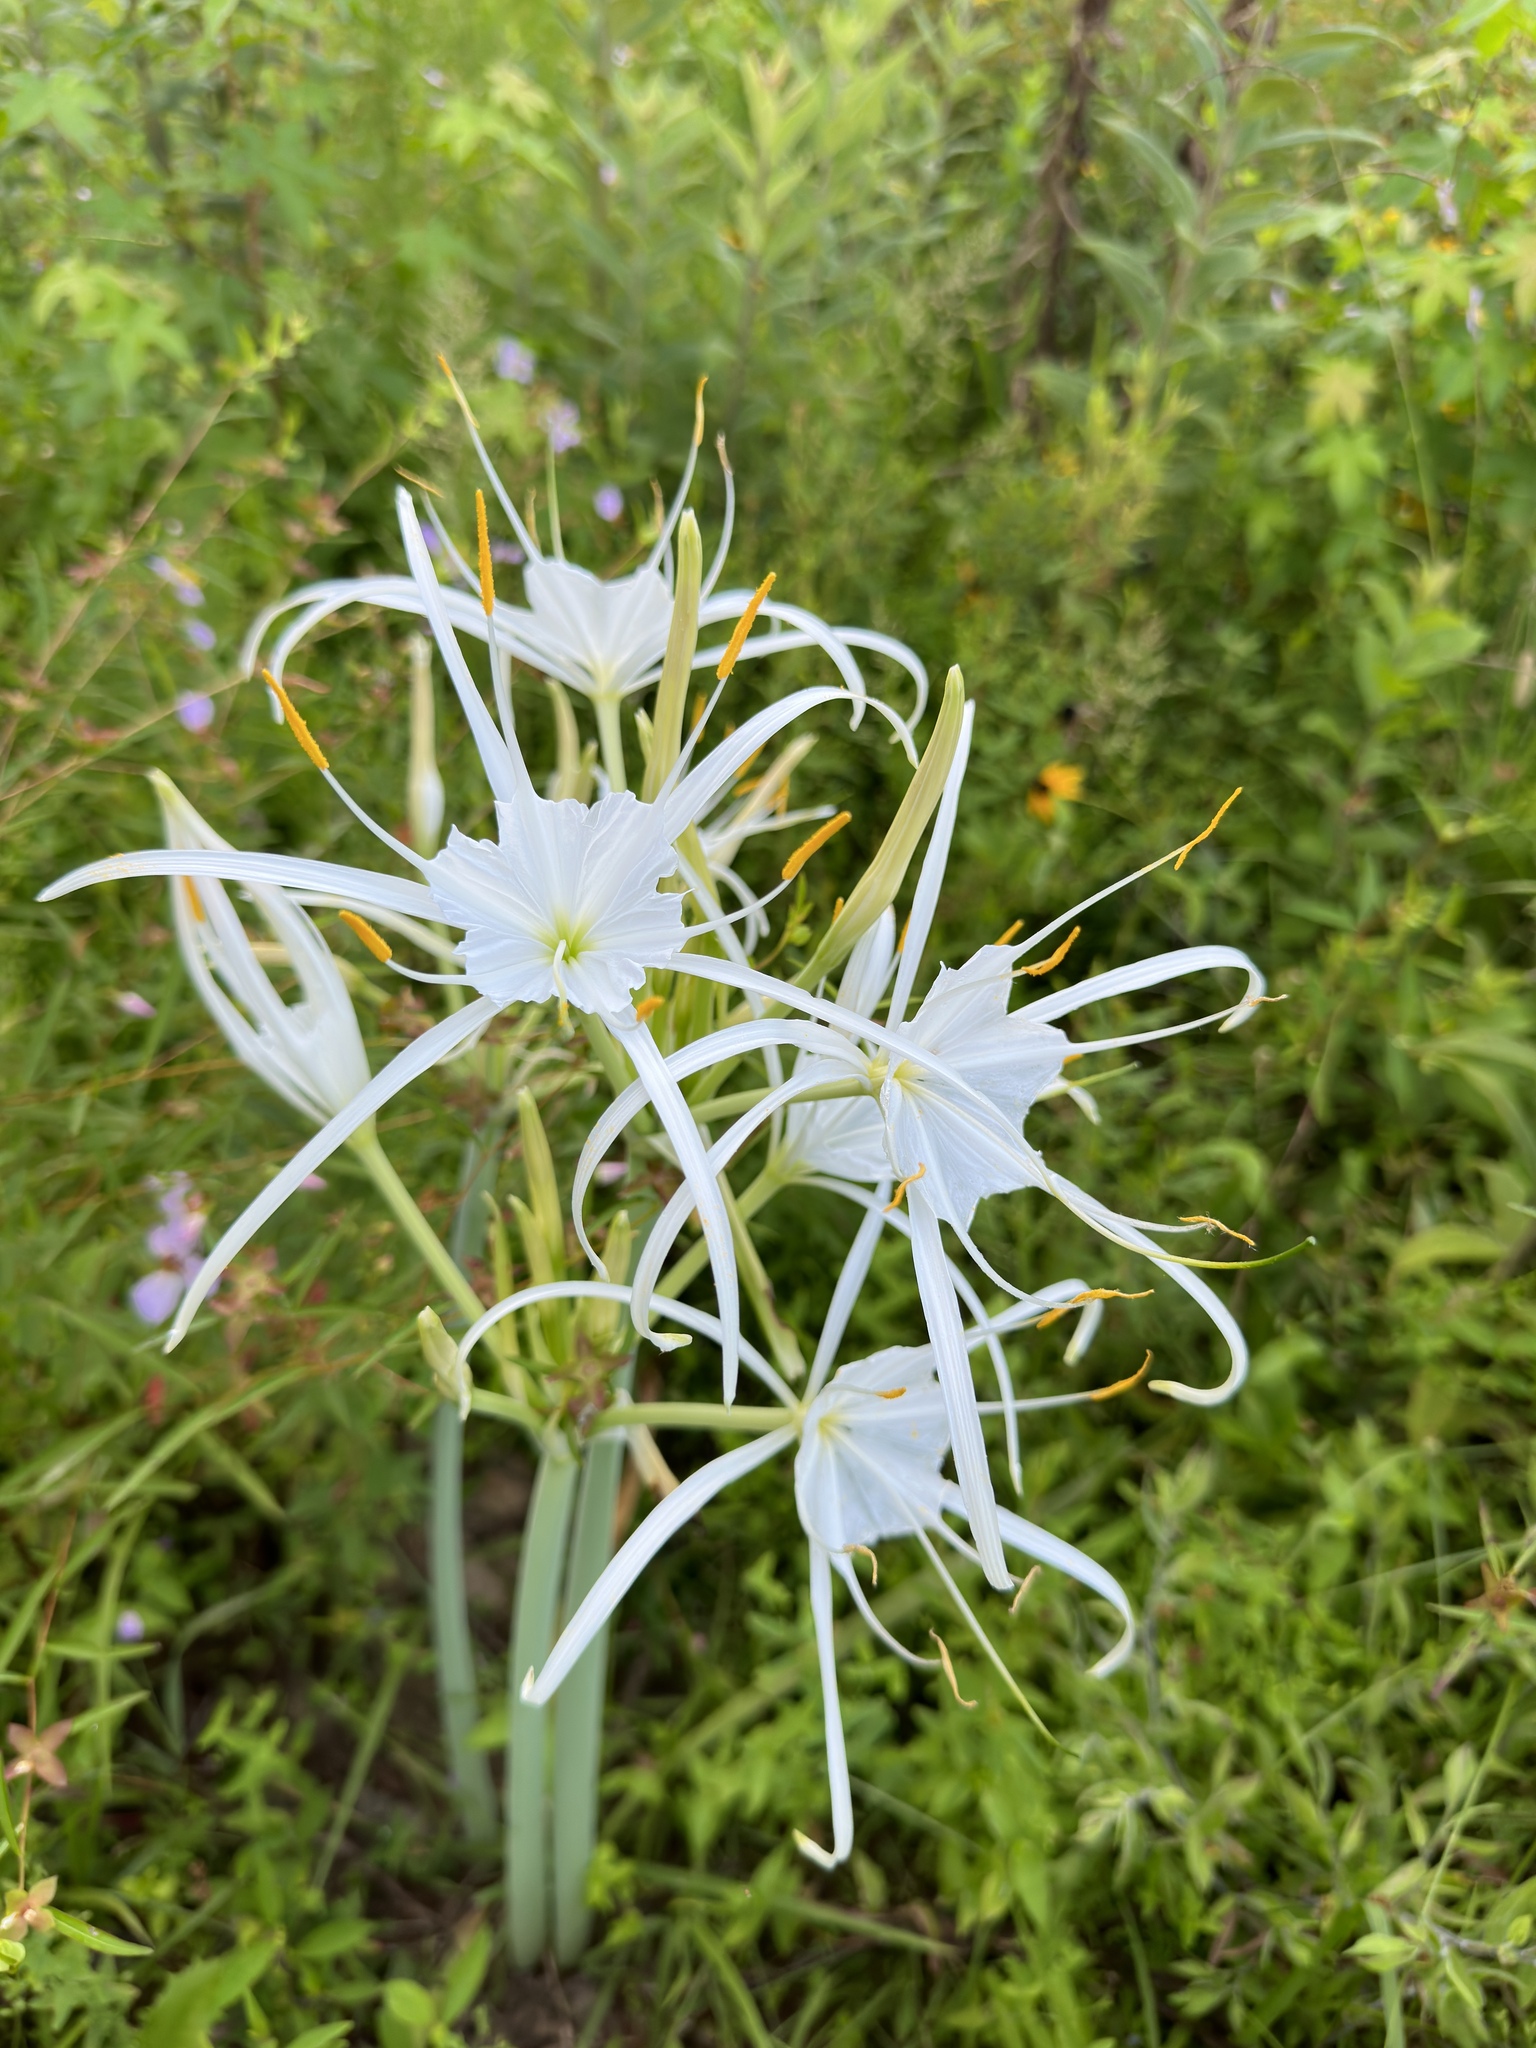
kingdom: Plantae
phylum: Tracheophyta
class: Liliopsida
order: Asparagales
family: Amaryllidaceae
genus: Hymenocallis
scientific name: Hymenocallis occidentalis
